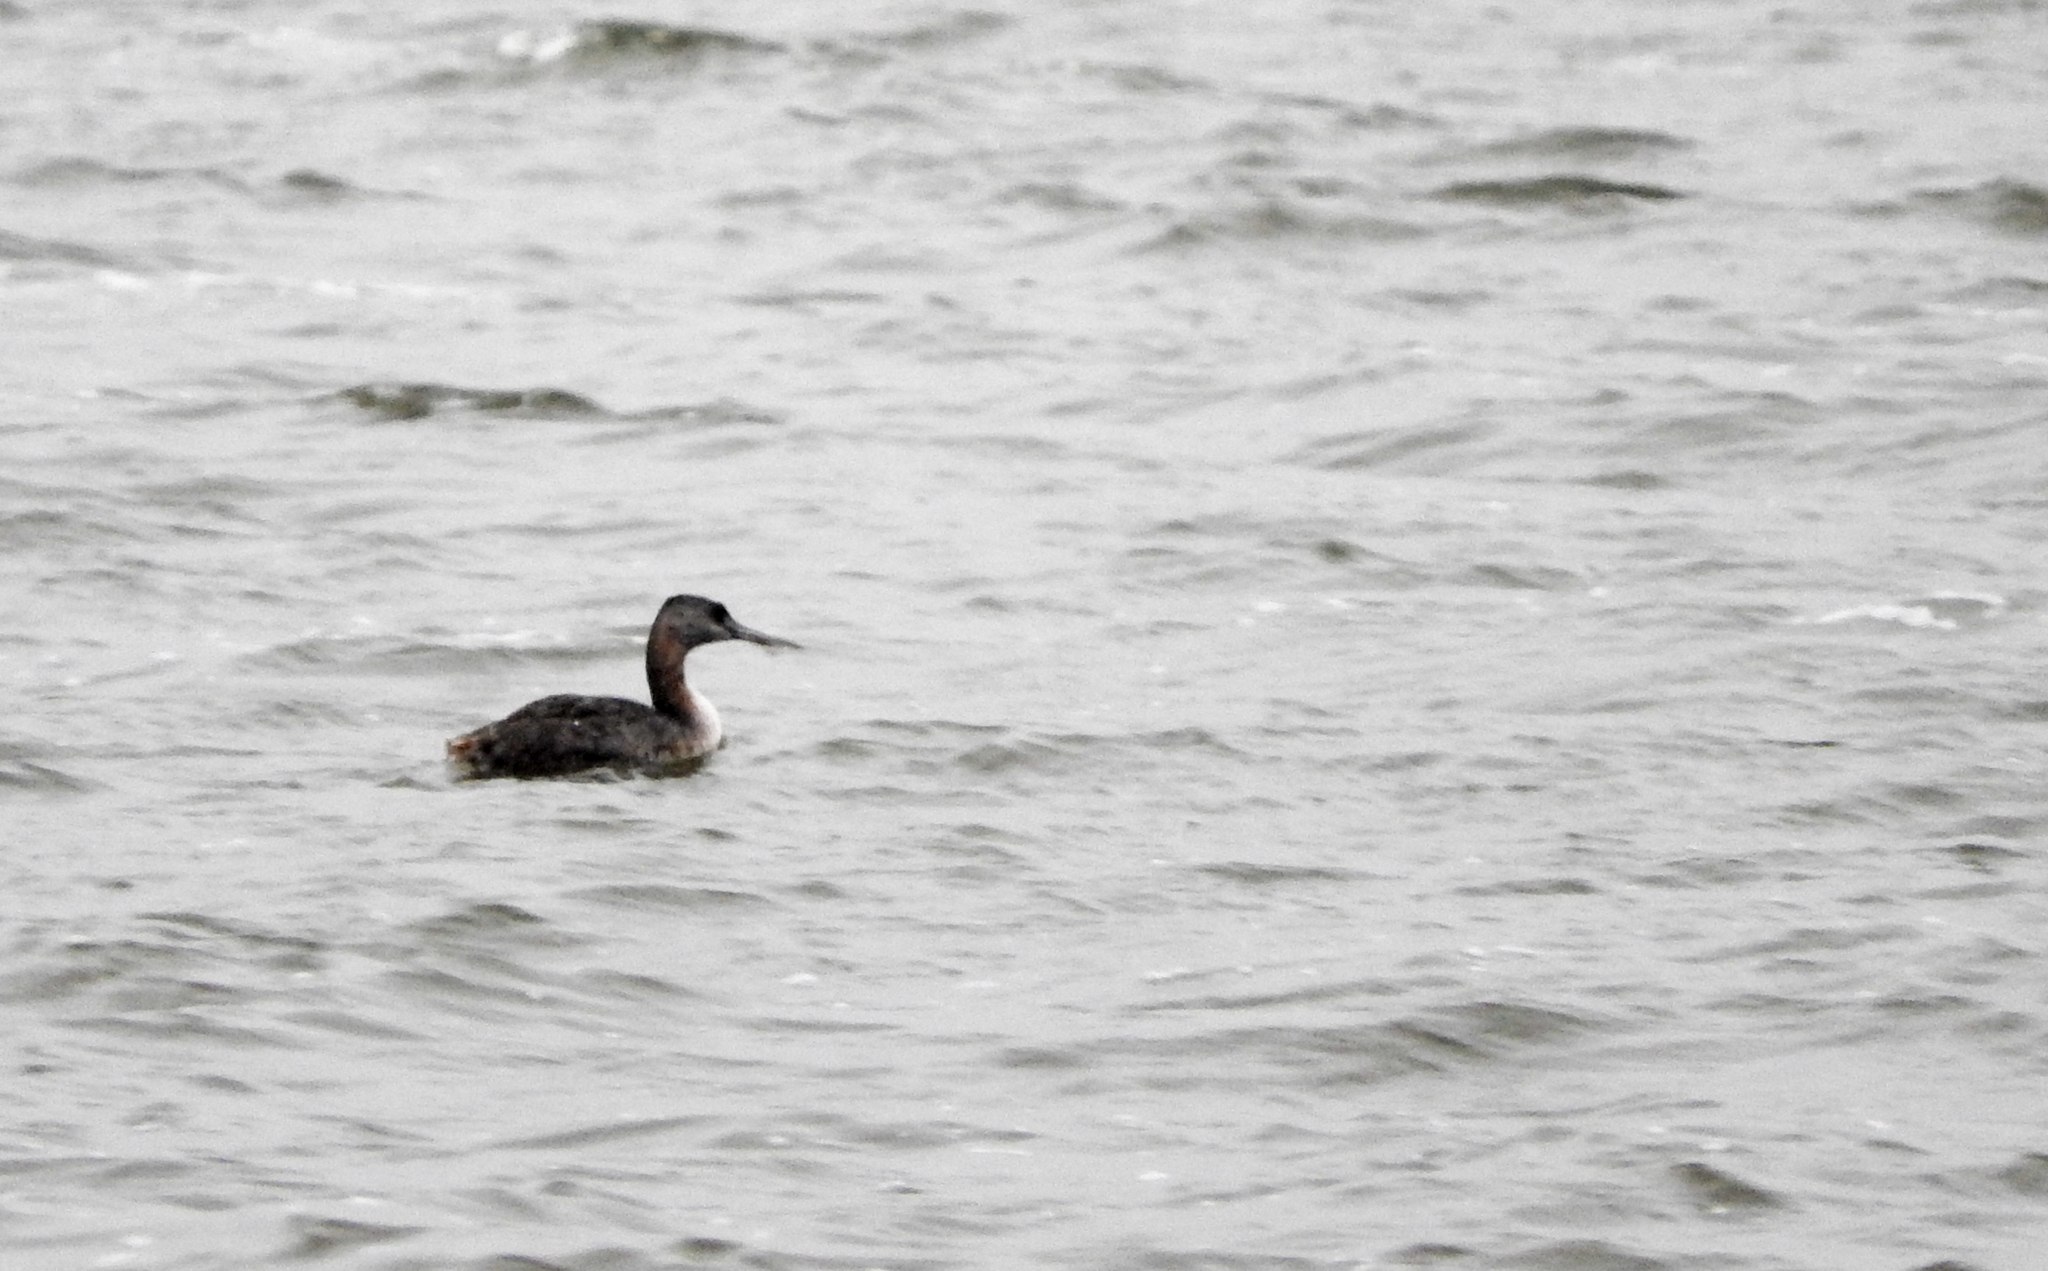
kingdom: Animalia
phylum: Chordata
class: Aves
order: Podicipediformes
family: Podicipedidae
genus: Podiceps
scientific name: Podiceps major
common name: Great grebe
